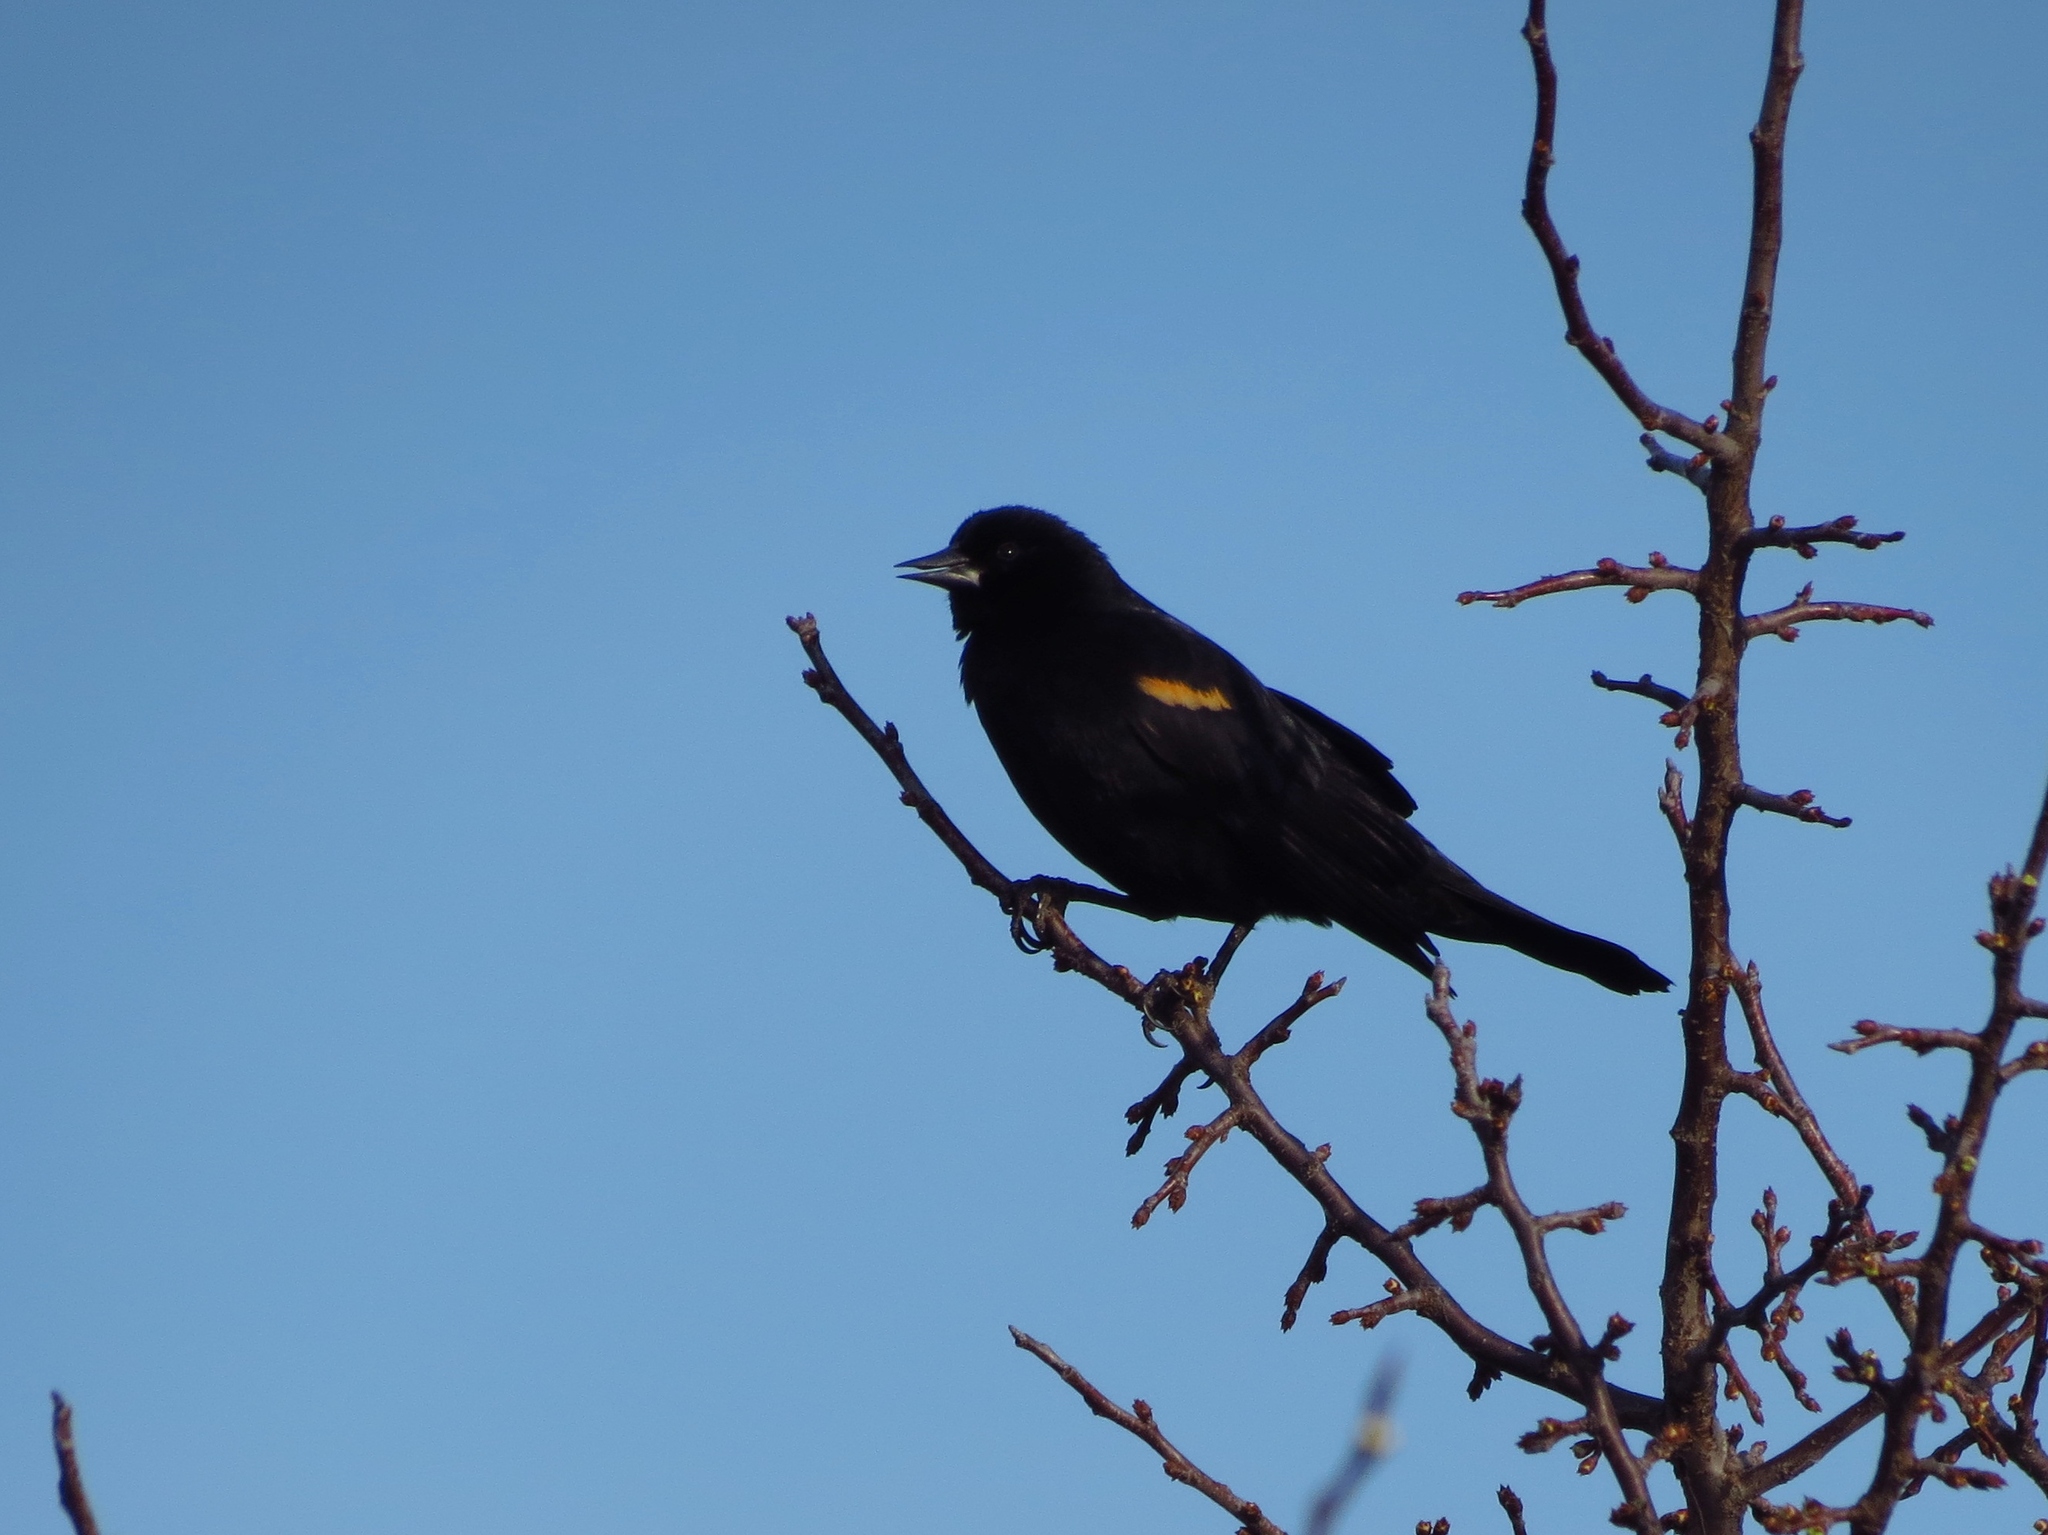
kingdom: Animalia
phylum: Chordata
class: Aves
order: Passeriformes
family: Icteridae
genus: Agelaius
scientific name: Agelaius phoeniceus
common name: Red-winged blackbird
